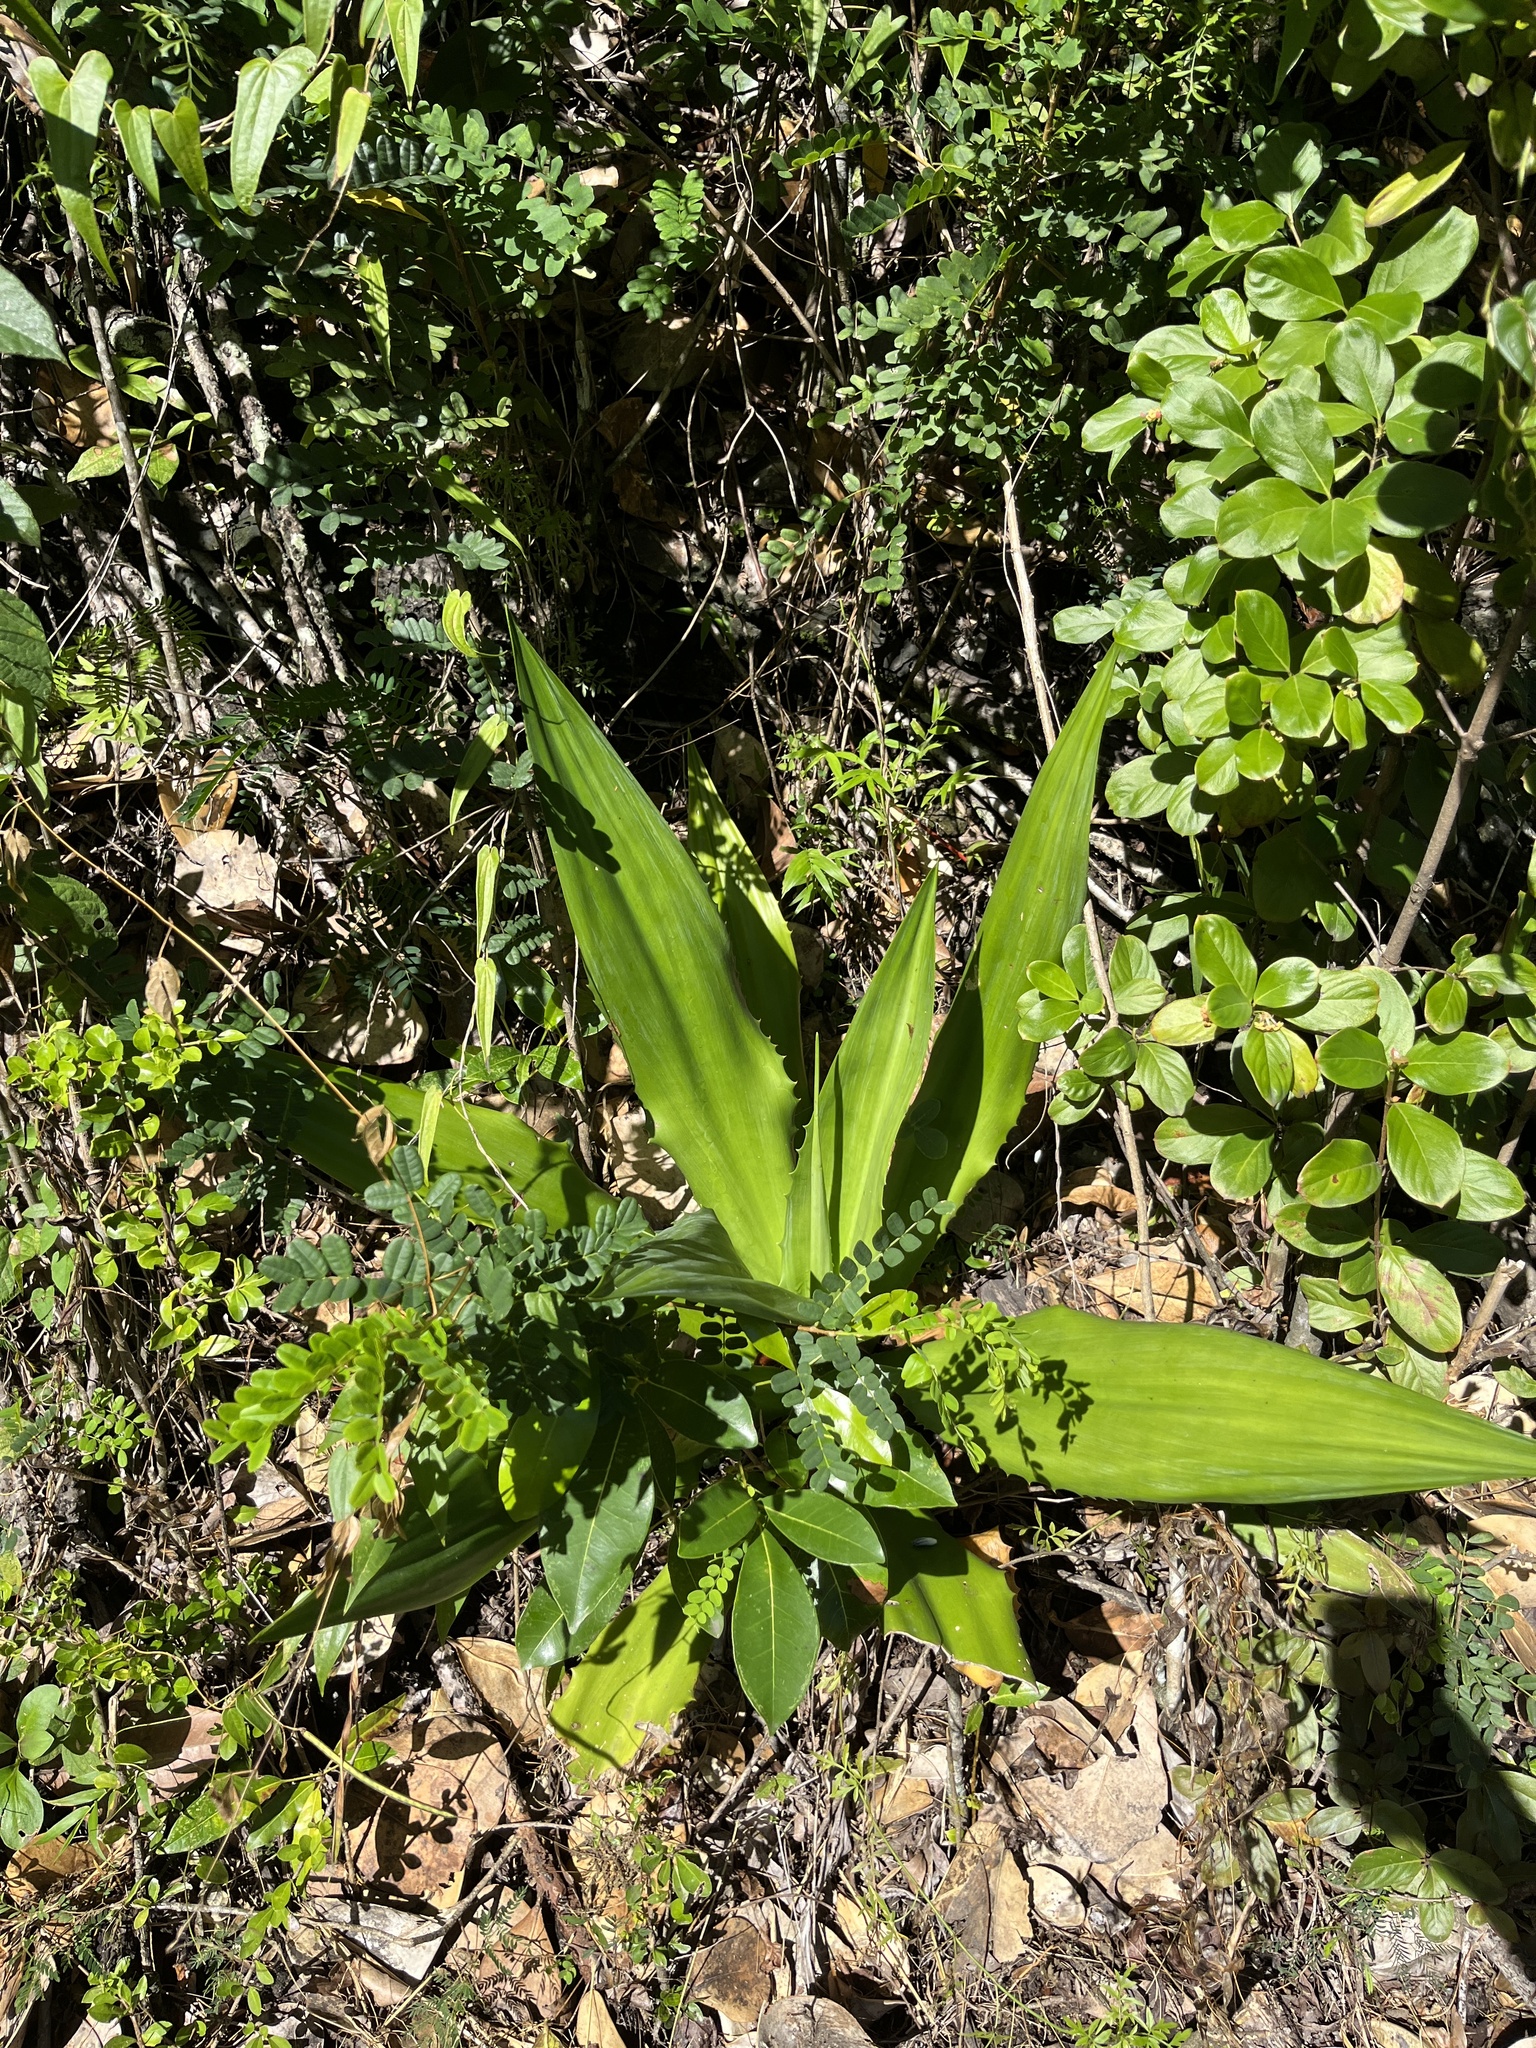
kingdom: Plantae
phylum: Tracheophyta
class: Liliopsida
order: Asparagales
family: Asparagaceae
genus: Furcraea
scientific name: Furcraea tuberosa
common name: Karata
